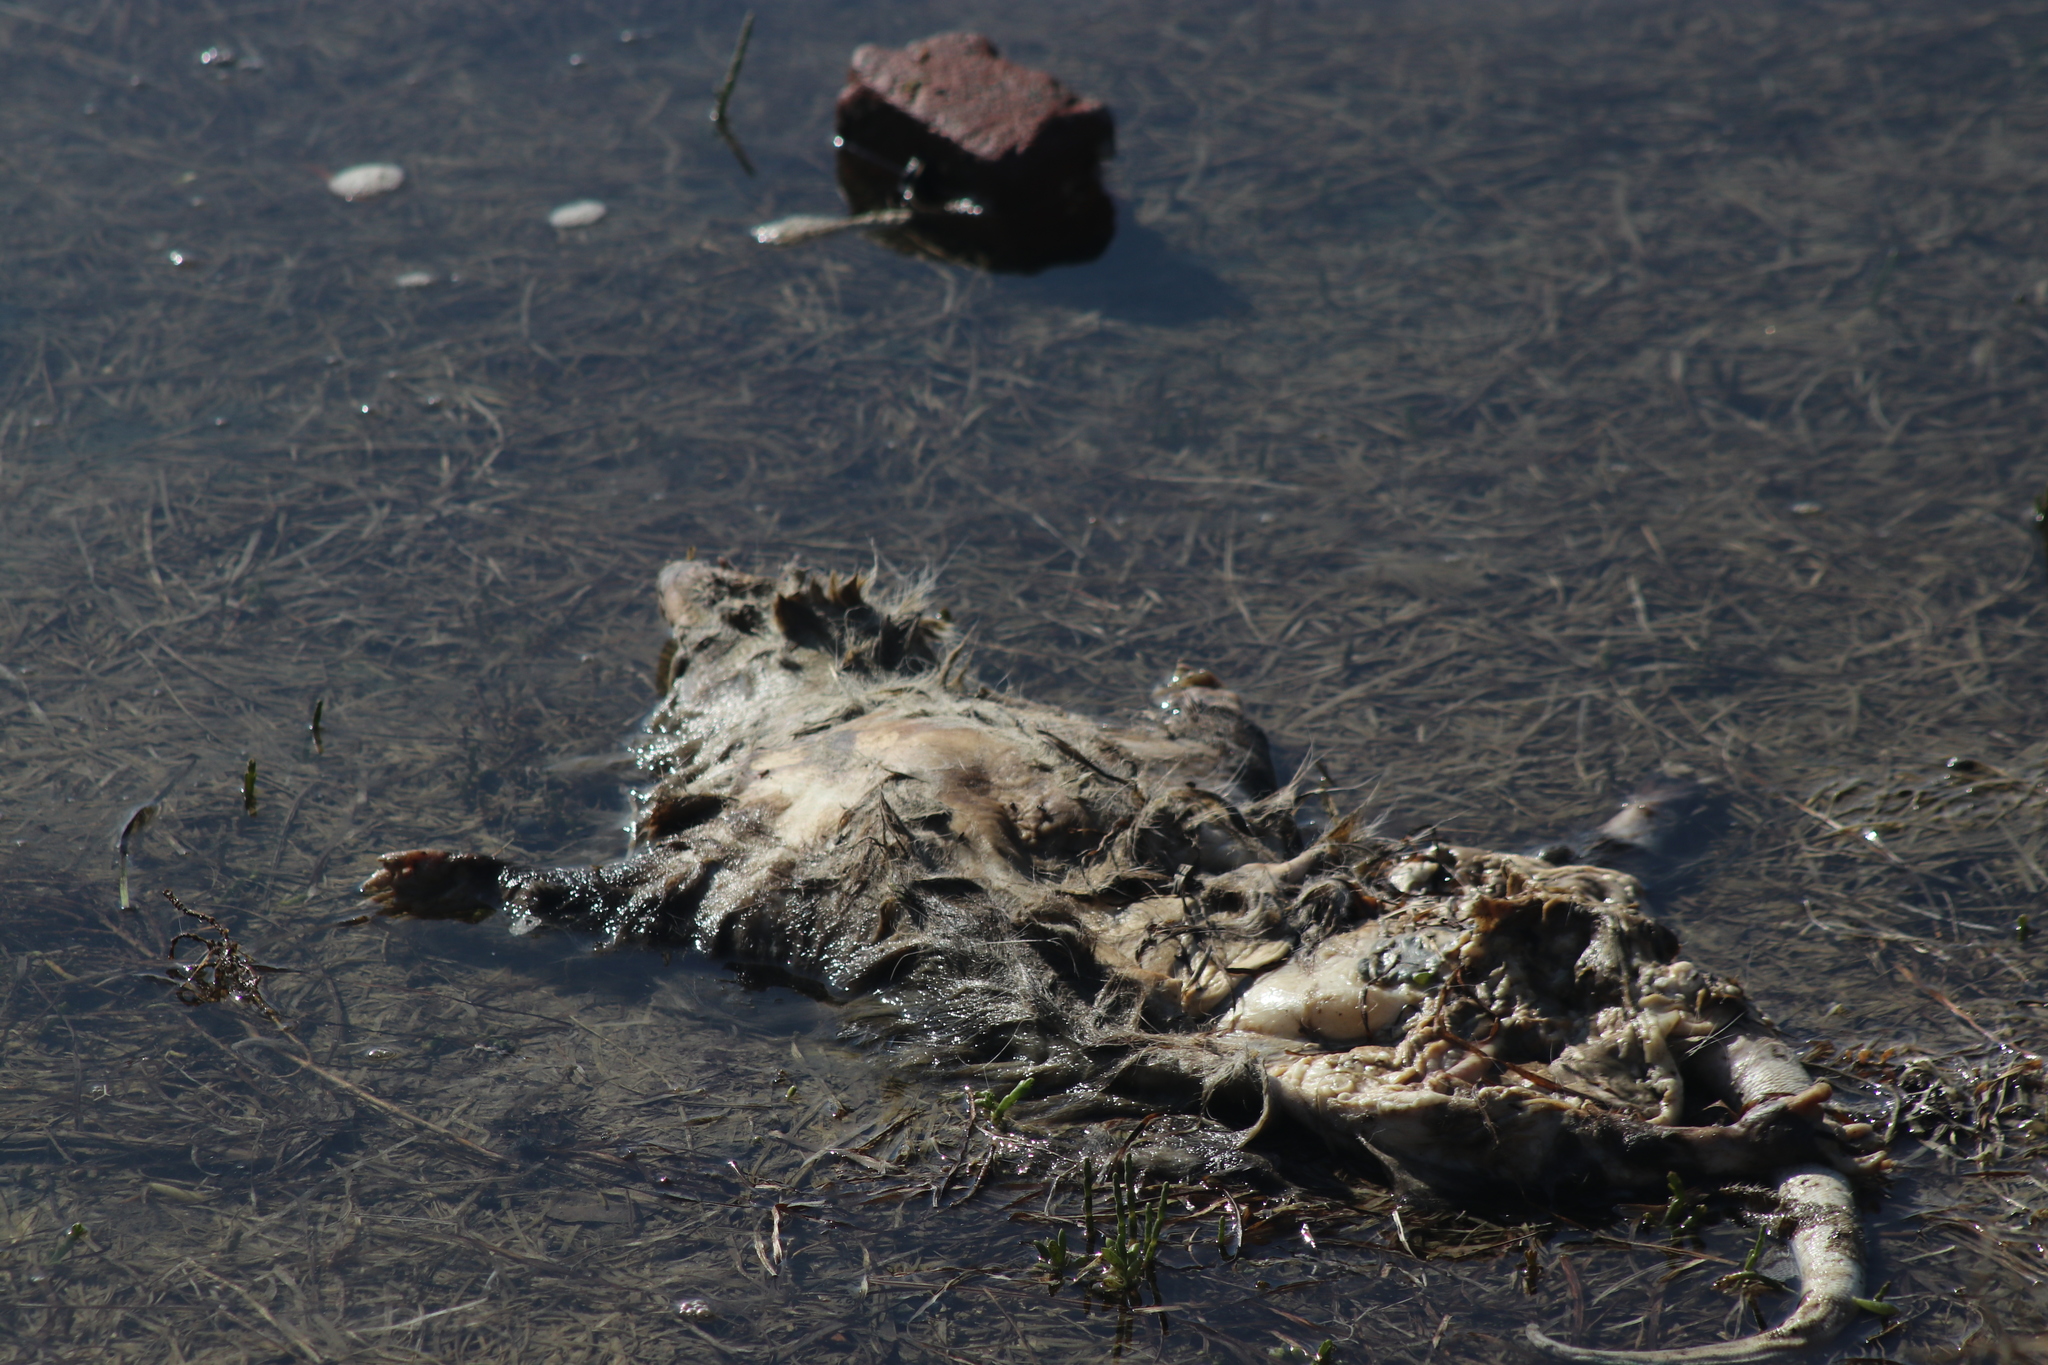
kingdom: Animalia
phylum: Chordata
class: Mammalia
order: Didelphimorphia
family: Didelphidae
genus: Didelphis
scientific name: Didelphis virginiana
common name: Virginia opossum
